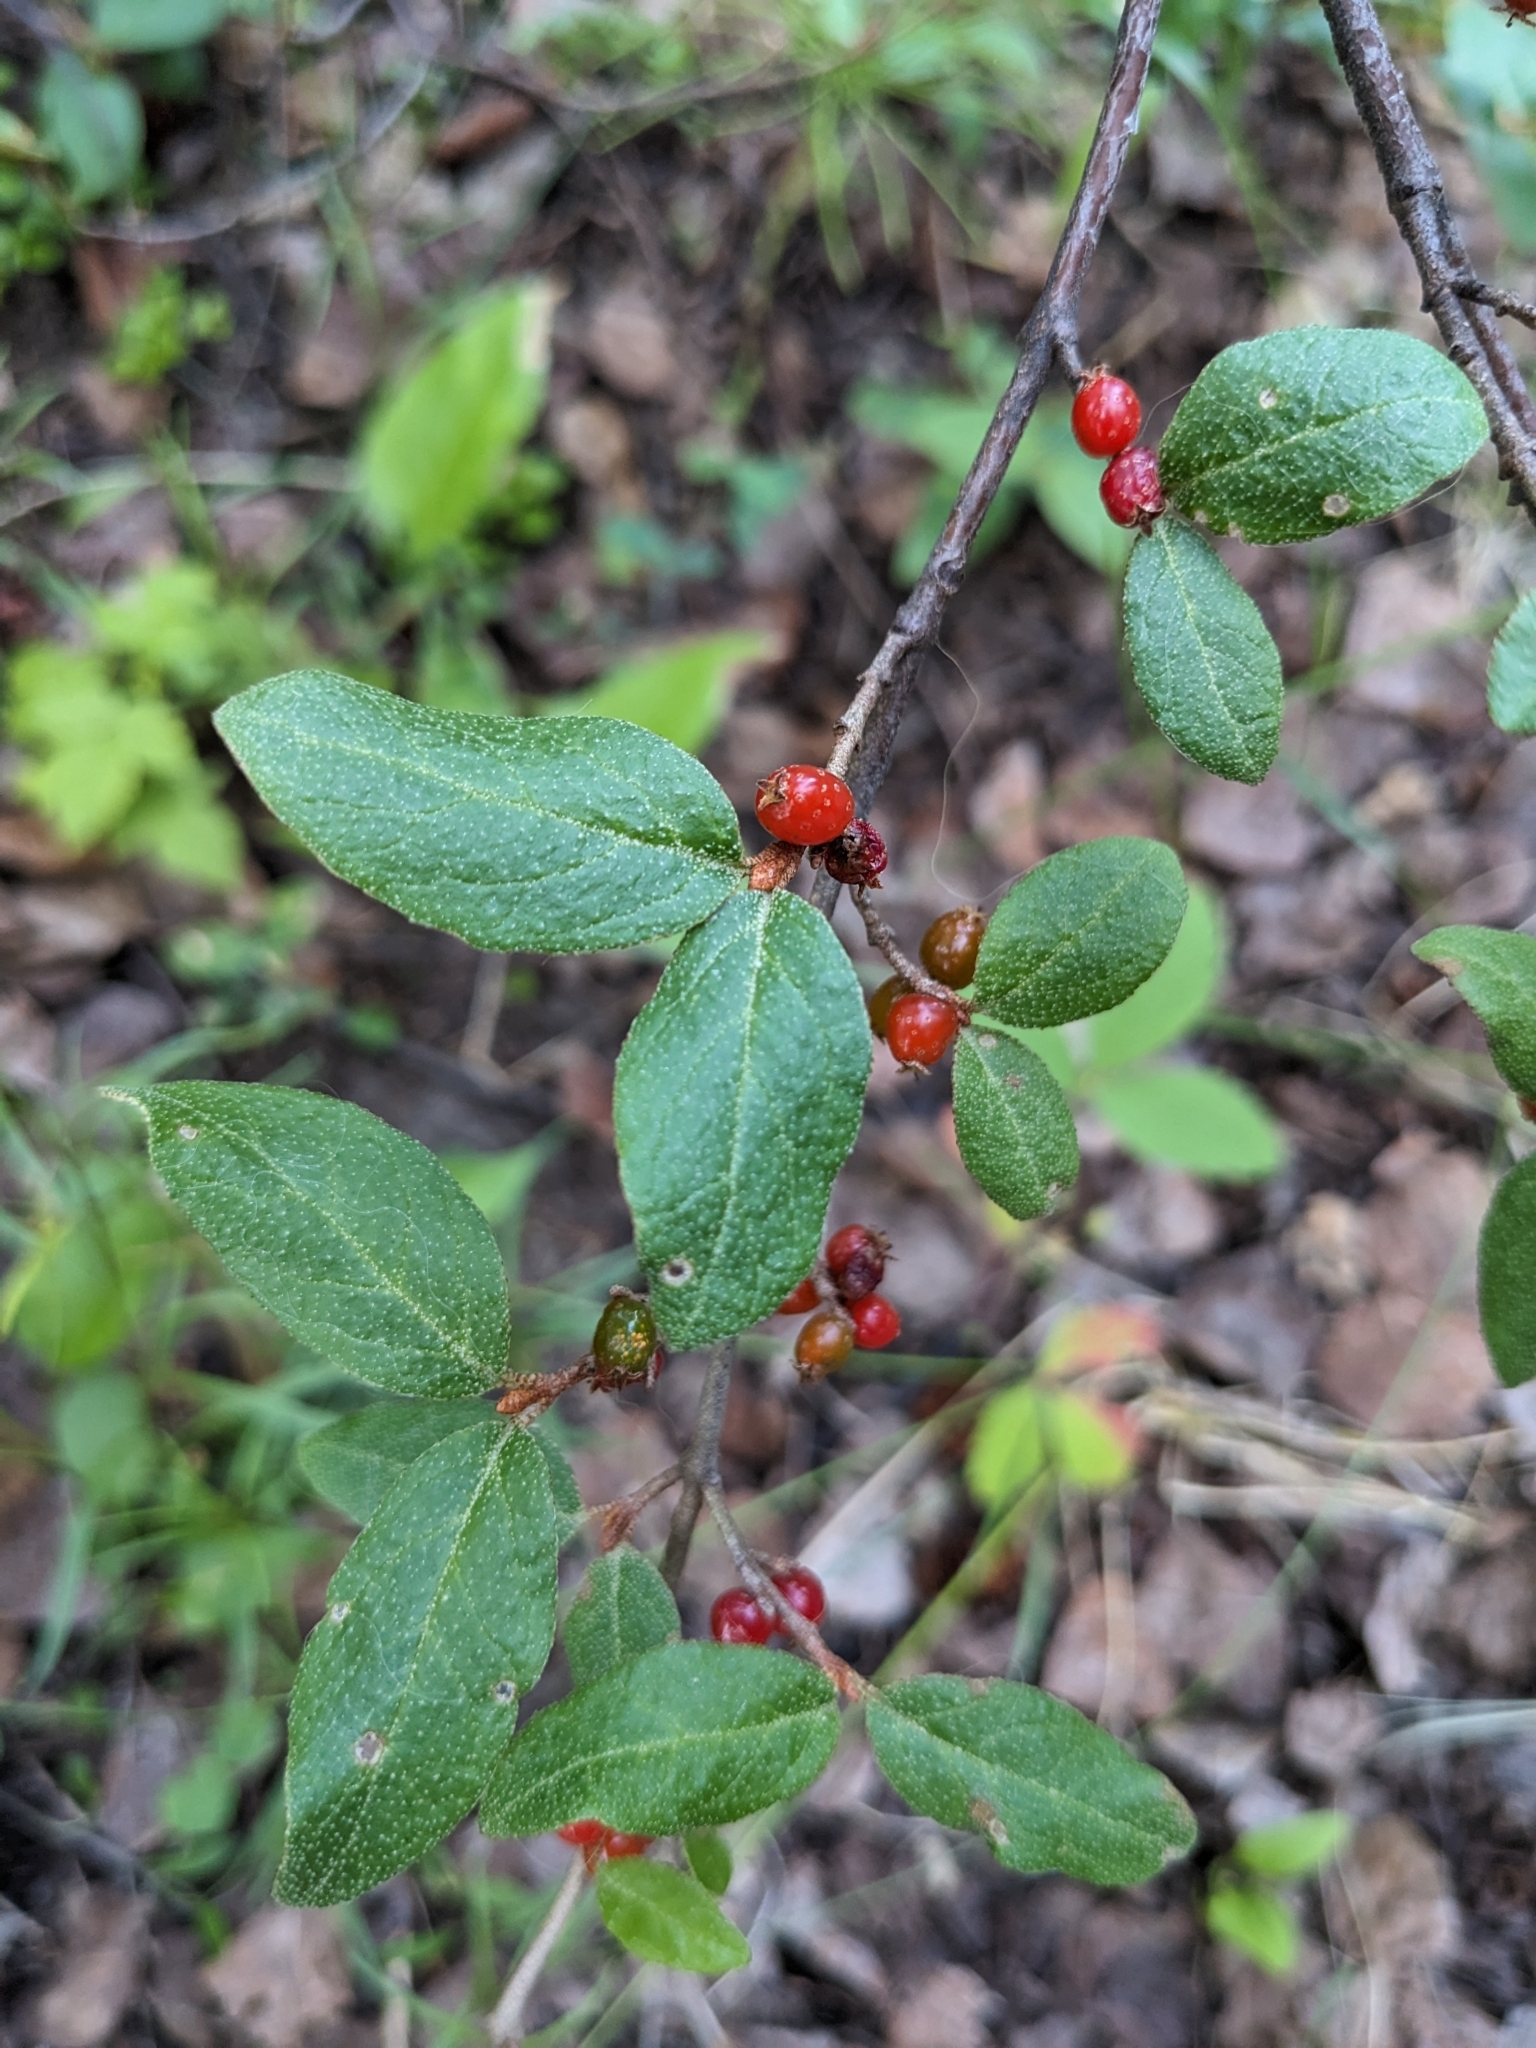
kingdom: Plantae
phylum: Tracheophyta
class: Magnoliopsida
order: Rosales
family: Elaeagnaceae
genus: Shepherdia
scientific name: Shepherdia canadensis
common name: Soapberry
